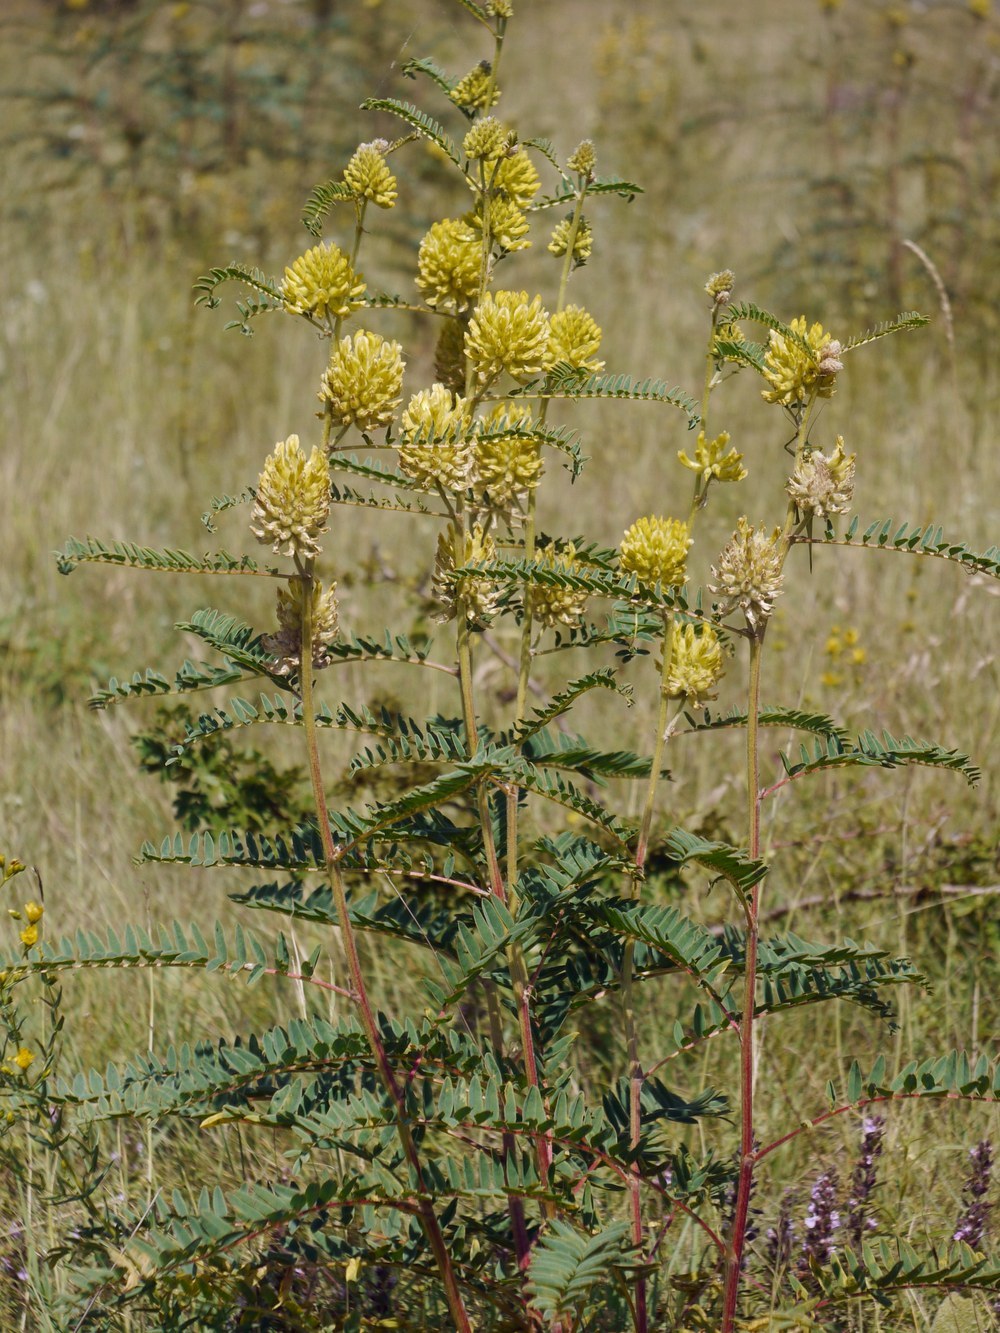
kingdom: Plantae
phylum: Tracheophyta
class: Magnoliopsida
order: Fabales
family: Fabaceae
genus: Astragalus
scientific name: Astragalus ponticus
